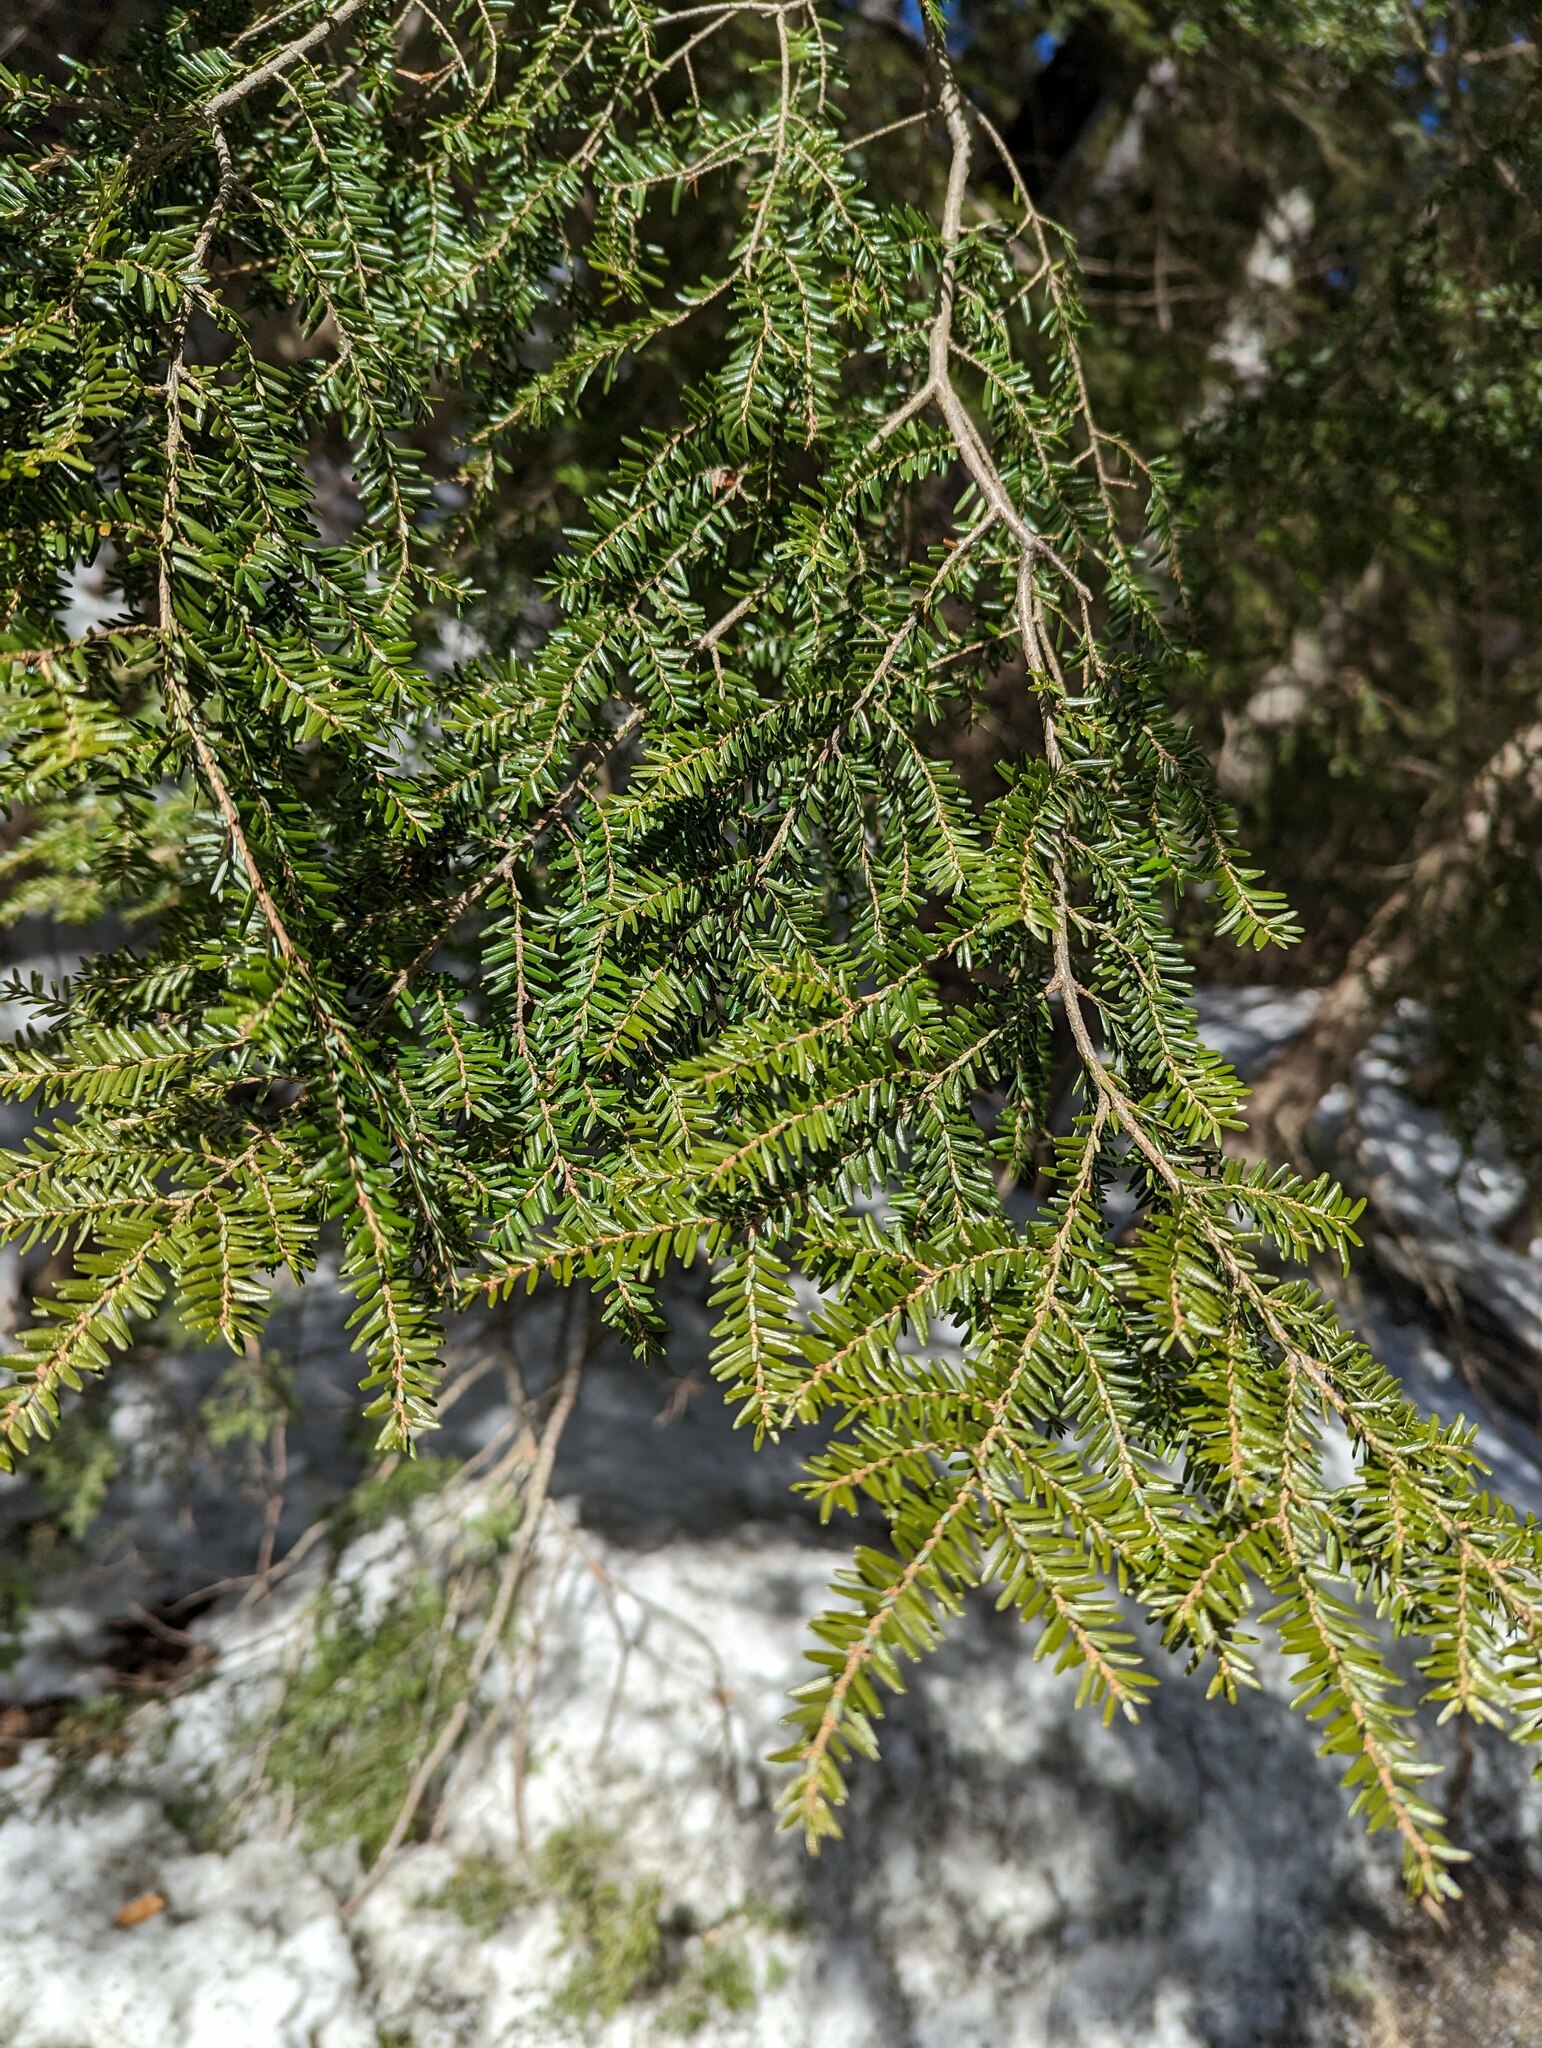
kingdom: Plantae
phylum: Tracheophyta
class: Pinopsida
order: Pinales
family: Pinaceae
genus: Tsuga
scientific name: Tsuga canadensis
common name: Eastern hemlock
